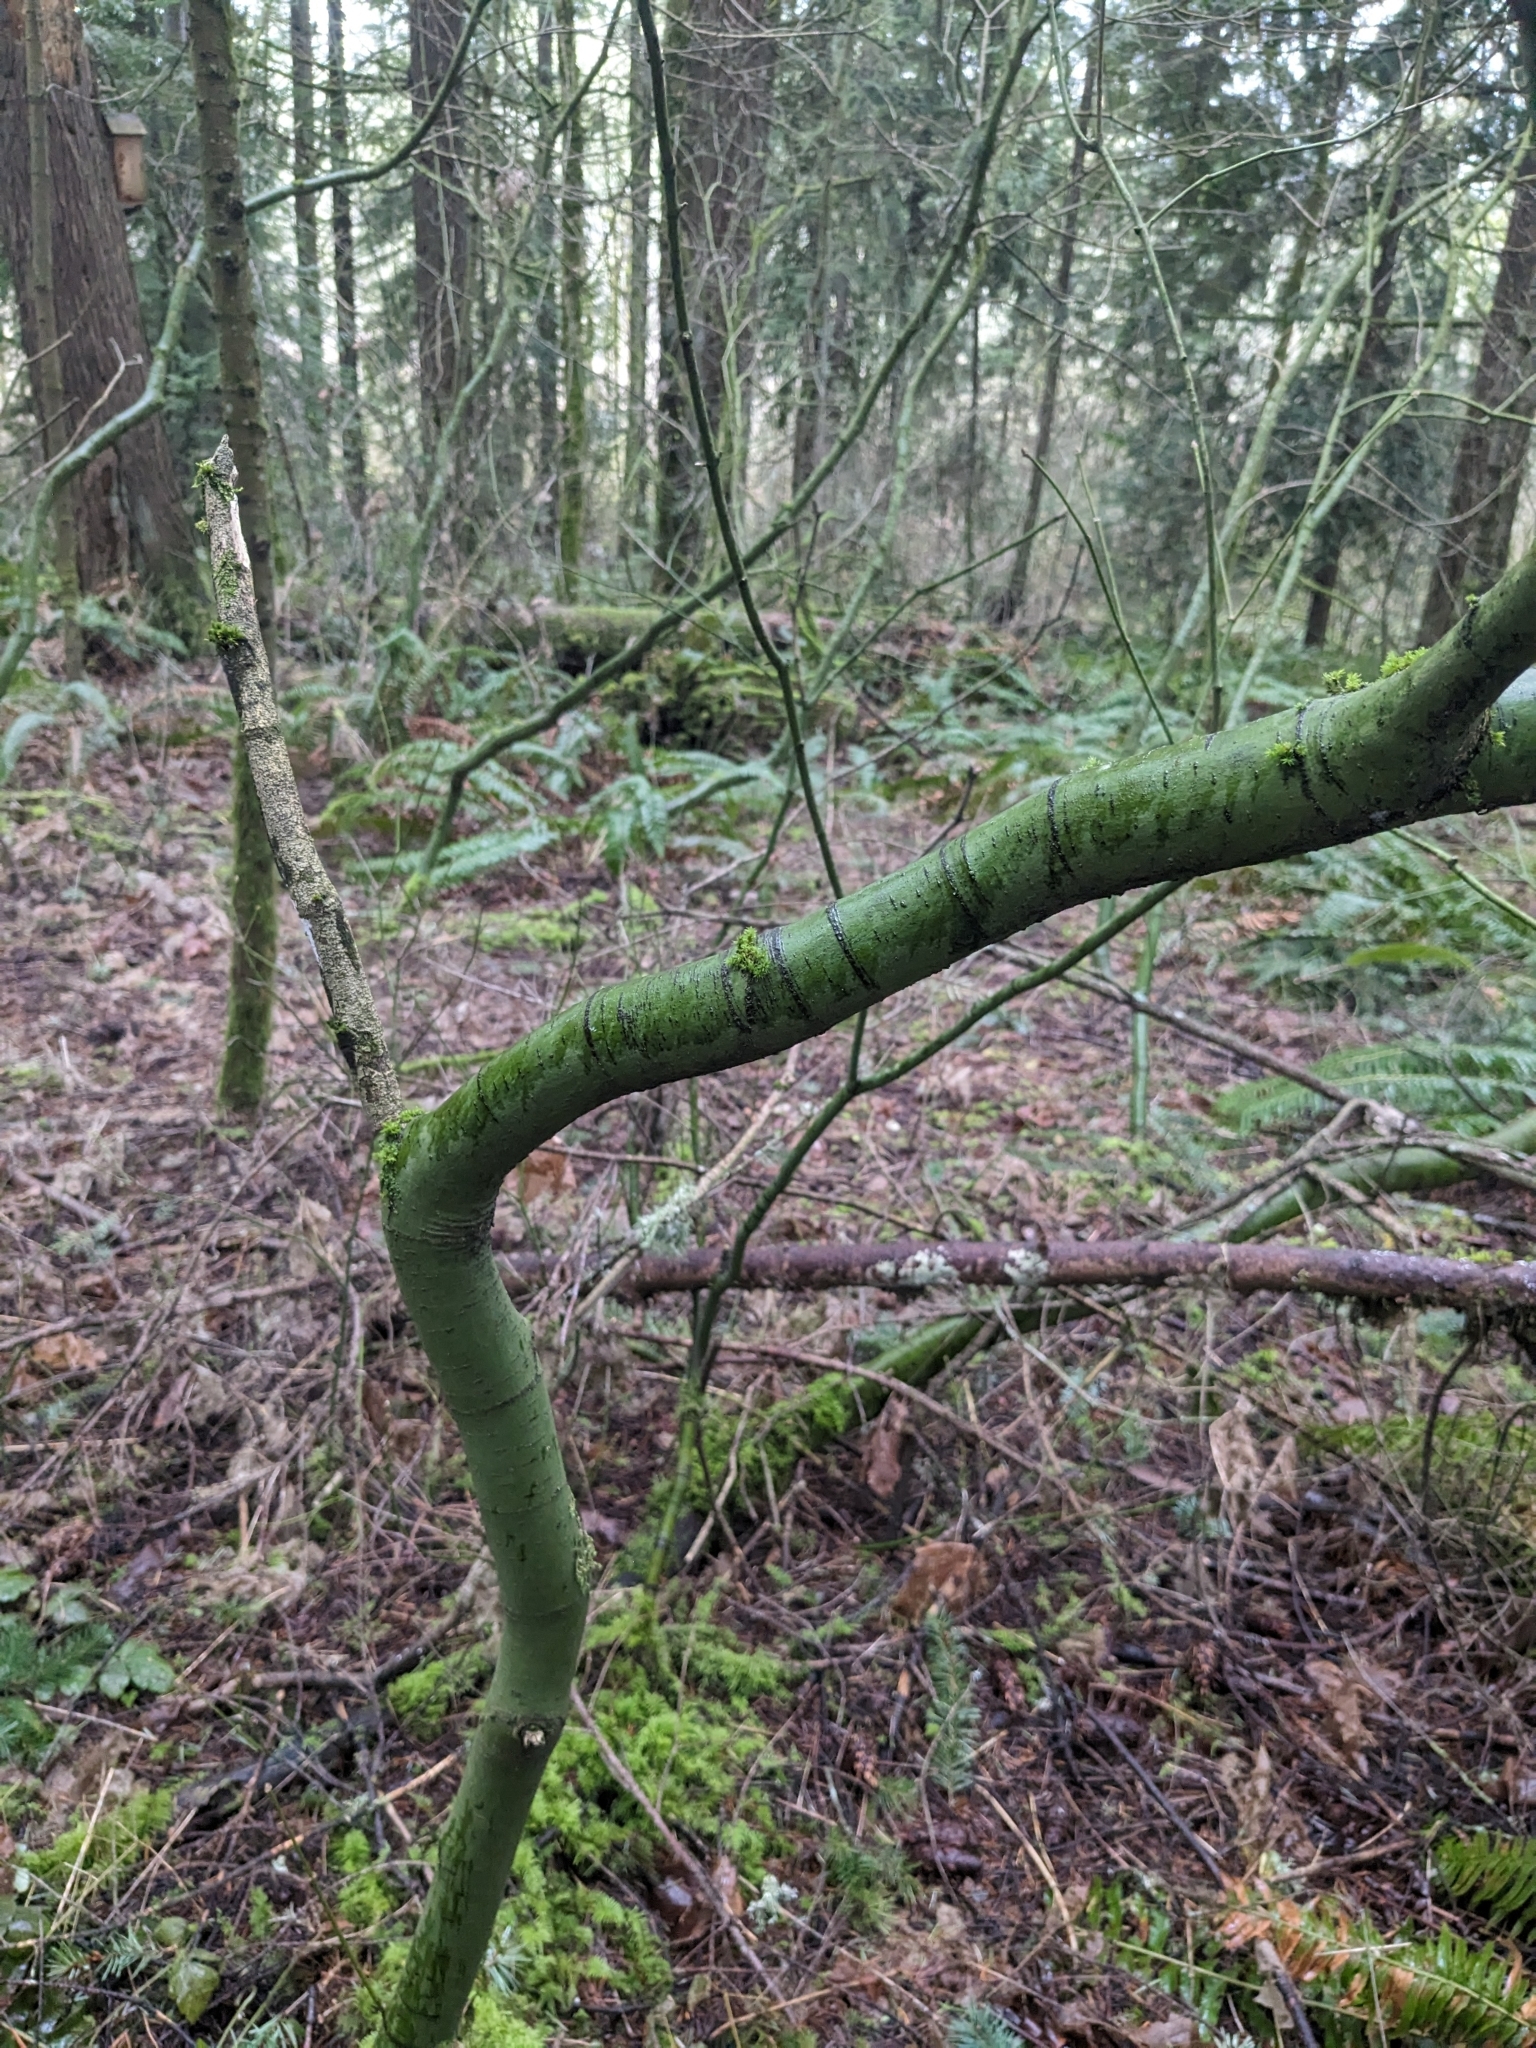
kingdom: Plantae
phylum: Tracheophyta
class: Magnoliopsida
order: Sapindales
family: Sapindaceae
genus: Acer
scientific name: Acer circinatum
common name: Vine maple
